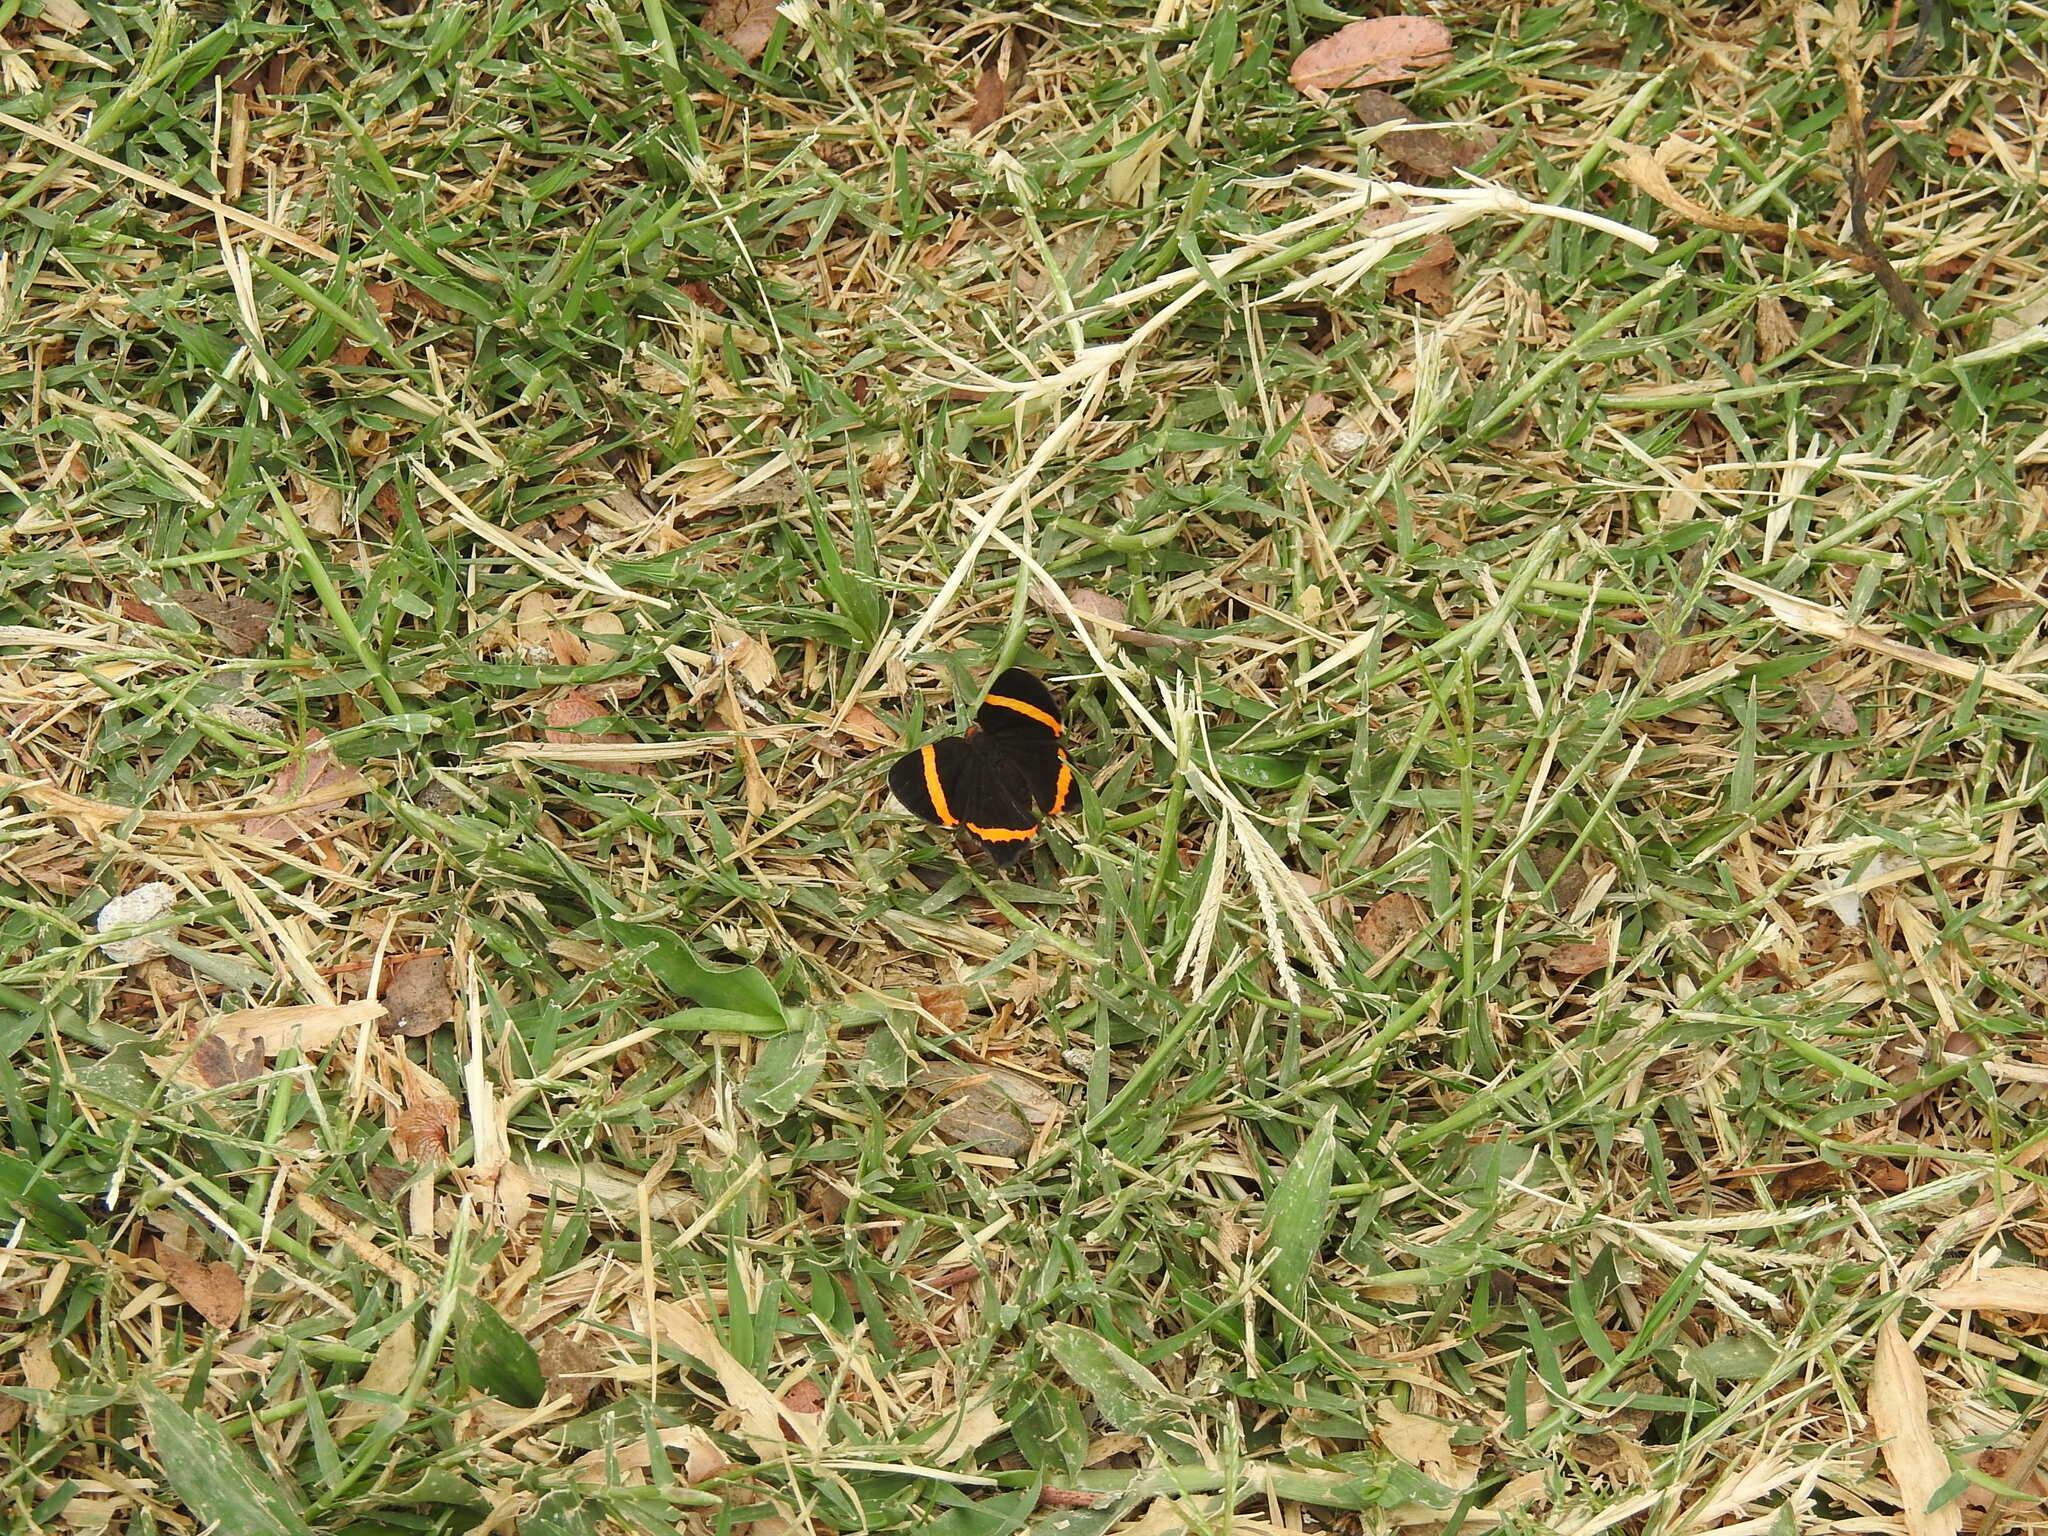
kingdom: Animalia
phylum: Arthropoda
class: Insecta
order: Lepidoptera
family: Riodinidae
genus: Riodina
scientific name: Riodina lysippoides
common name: Little dancer metalmark
